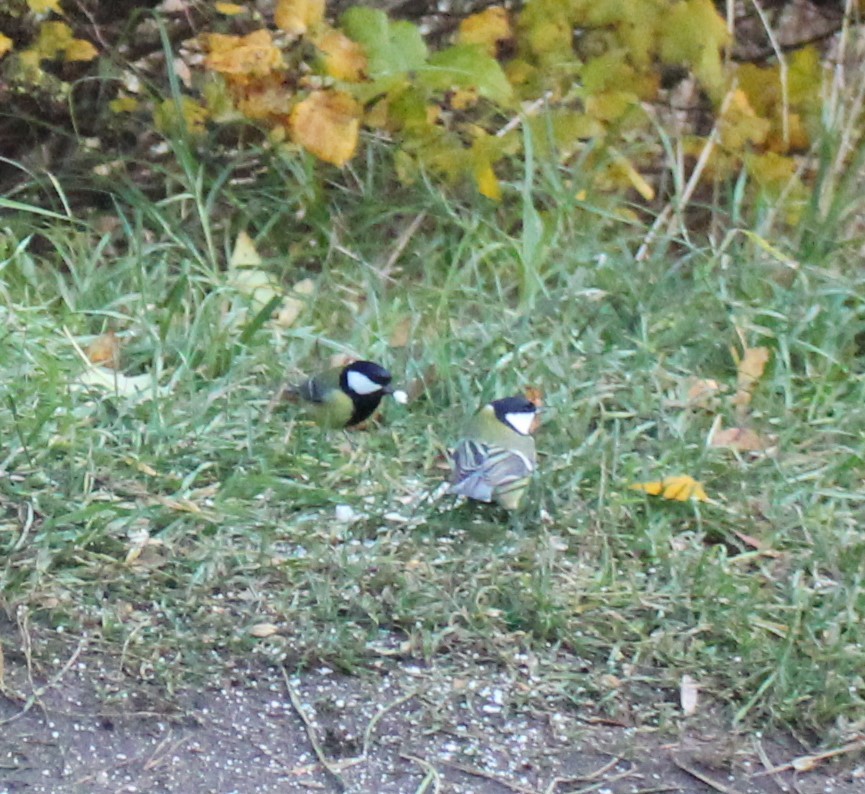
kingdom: Animalia
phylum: Chordata
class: Aves
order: Passeriformes
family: Paridae
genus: Parus
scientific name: Parus major
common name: Great tit
